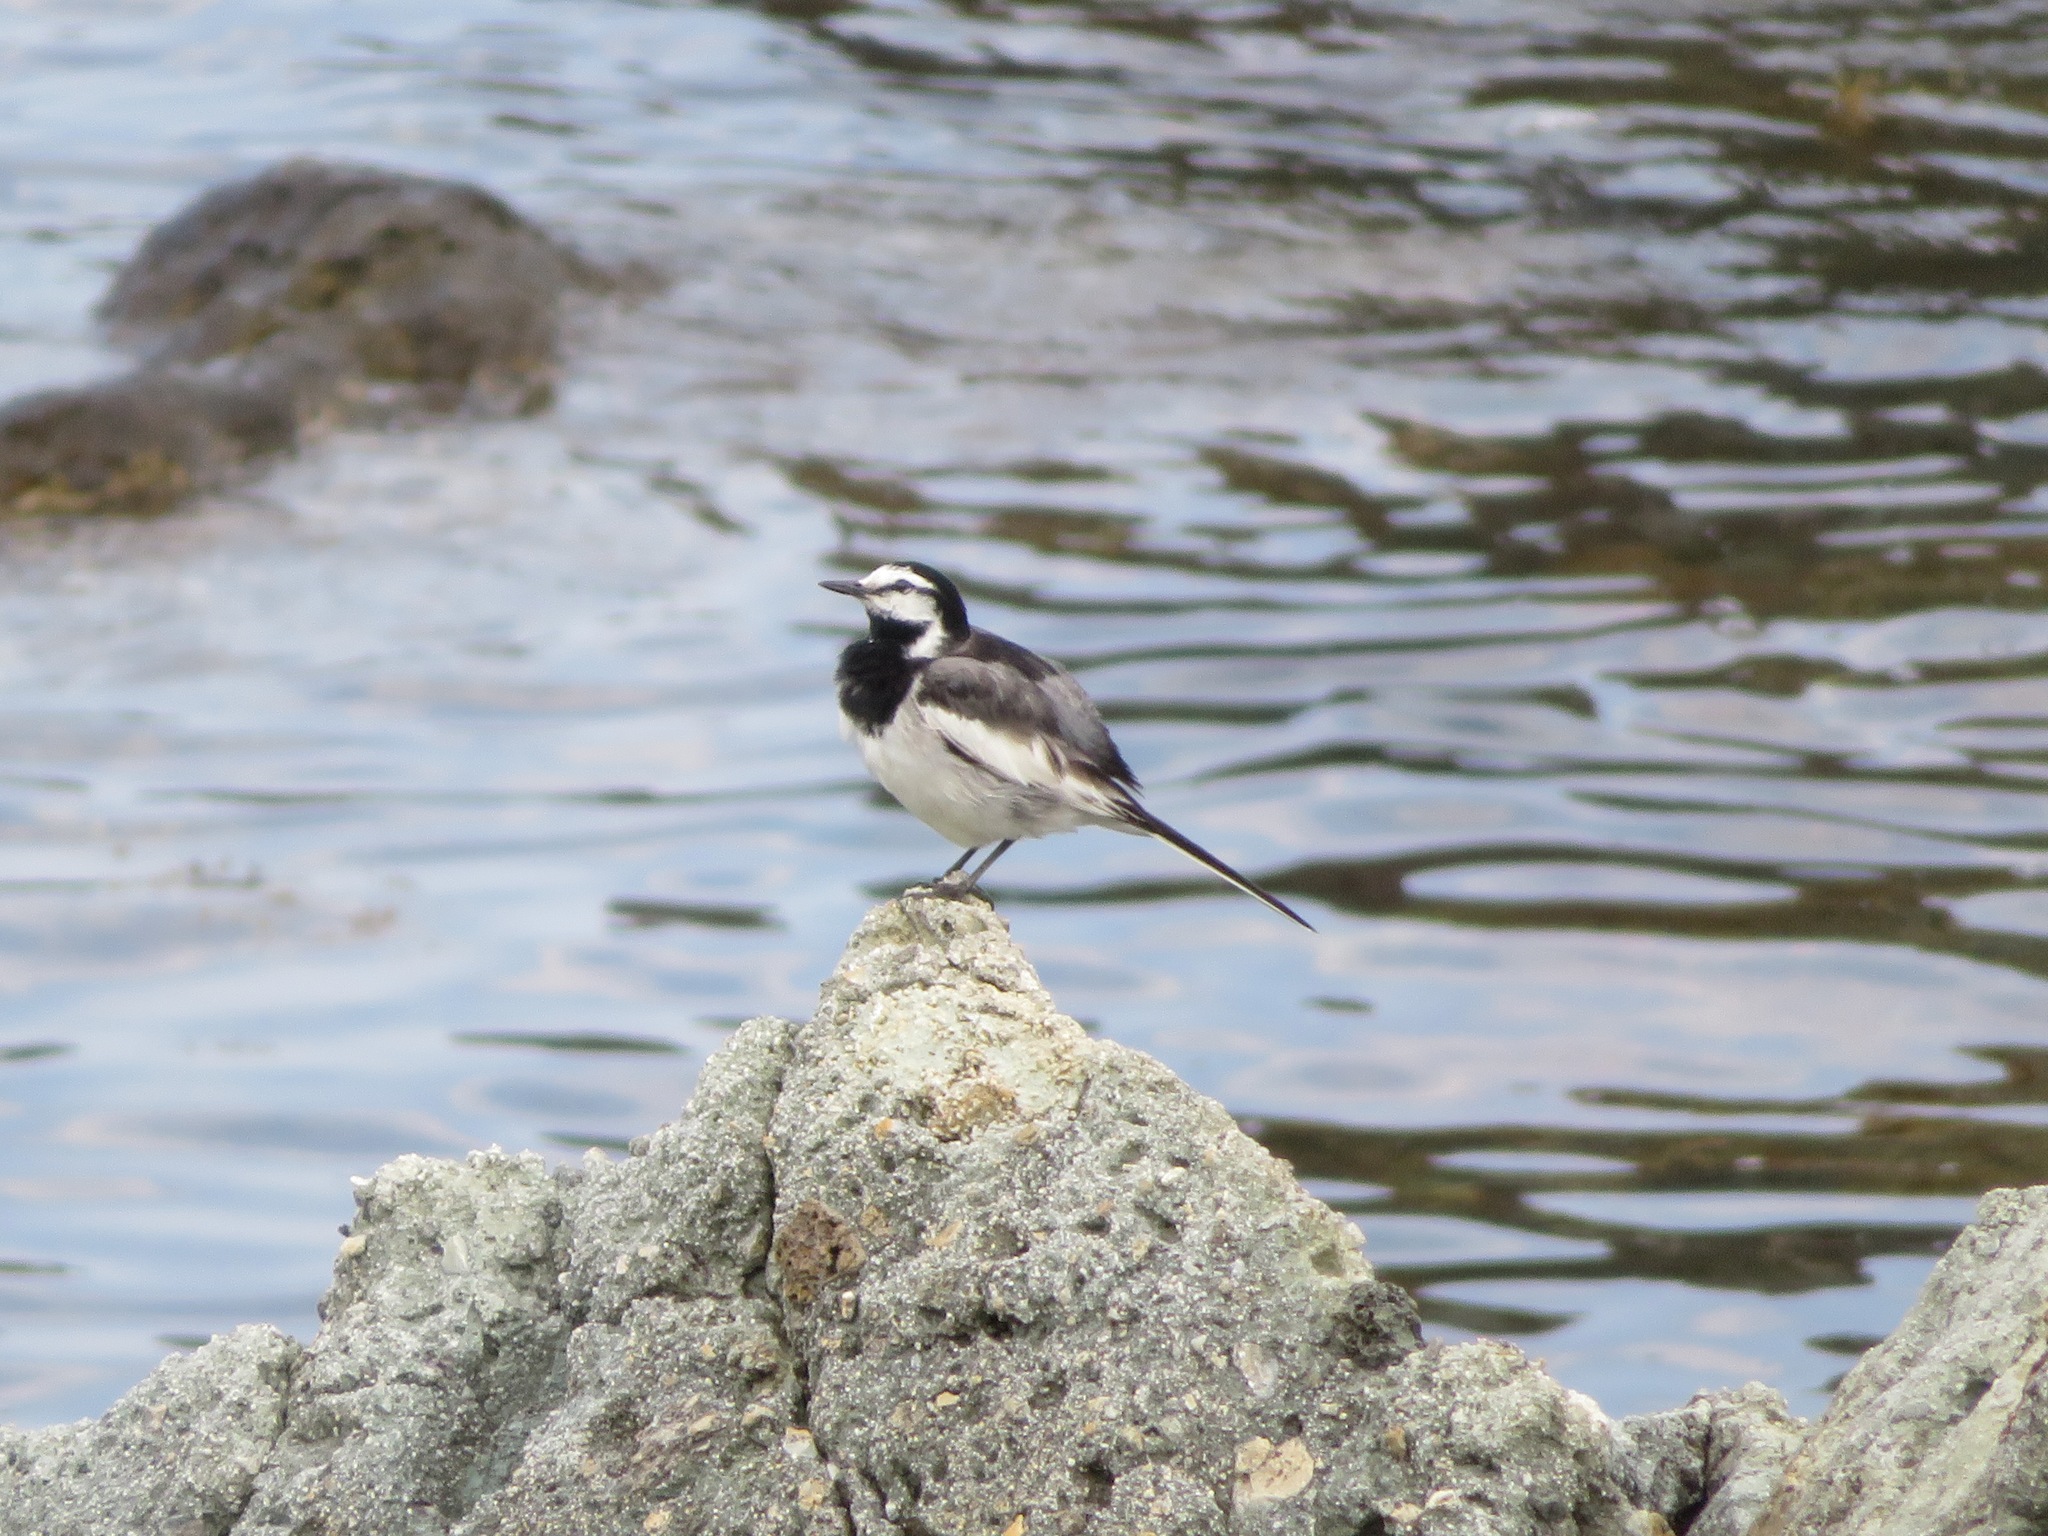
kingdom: Animalia
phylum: Chordata
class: Aves
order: Passeriformes
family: Motacillidae
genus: Motacilla
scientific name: Motacilla alba
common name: White wagtail
